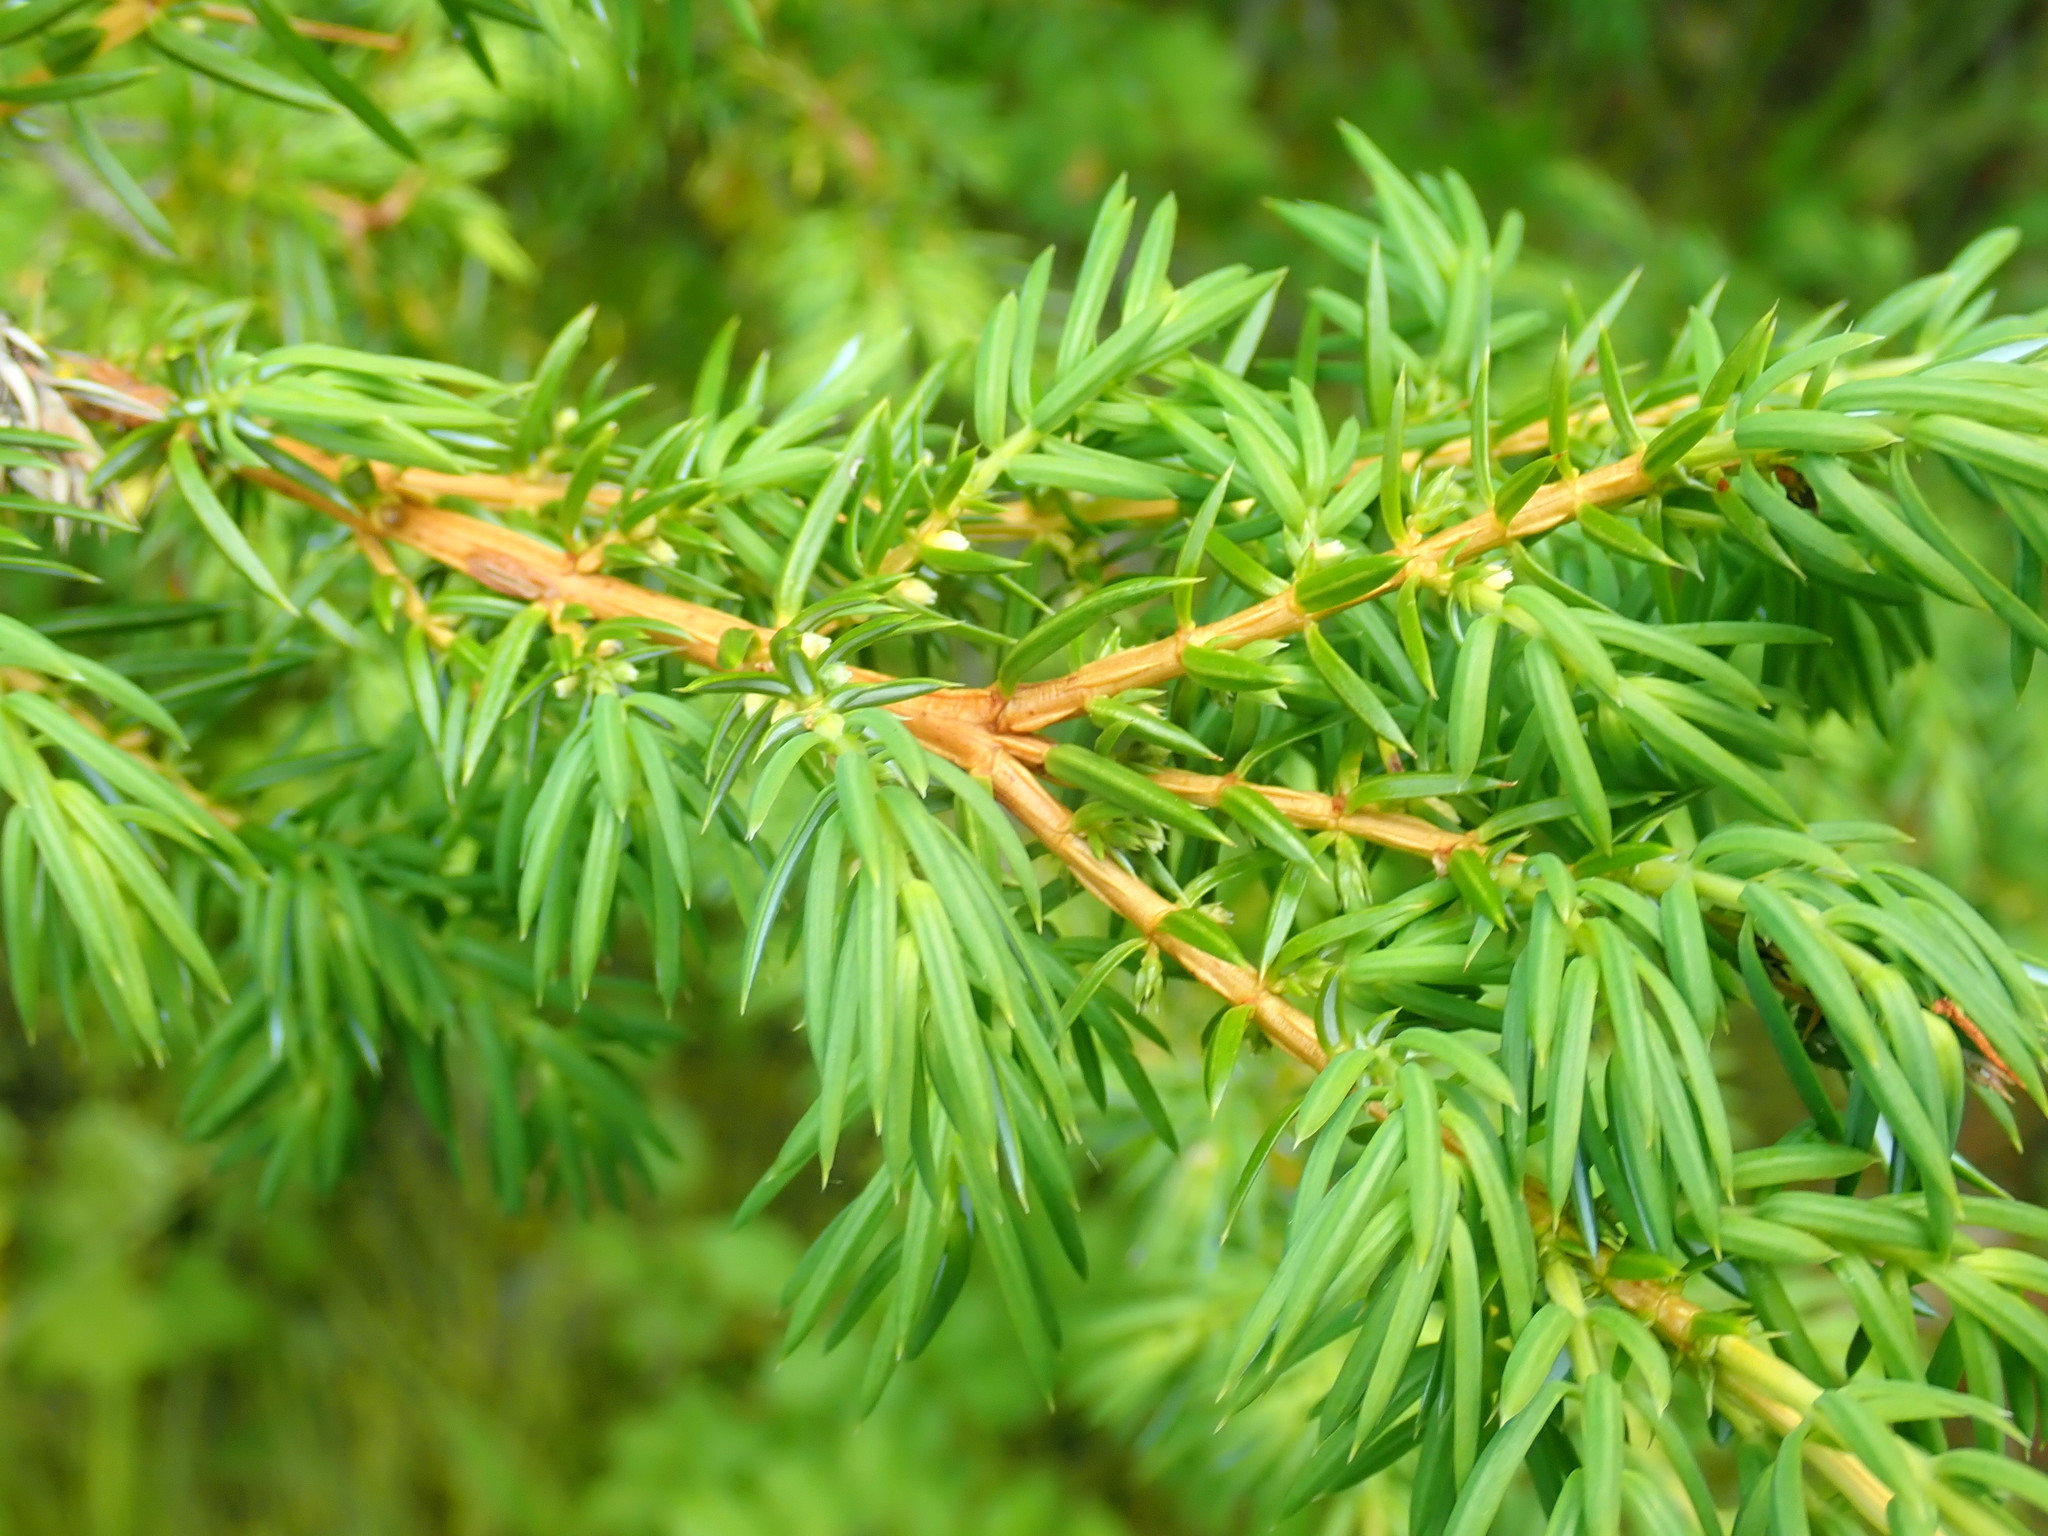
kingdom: Plantae
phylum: Tracheophyta
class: Pinopsida
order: Pinales
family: Cupressaceae
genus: Juniperus
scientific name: Juniperus communis
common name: Common juniper
